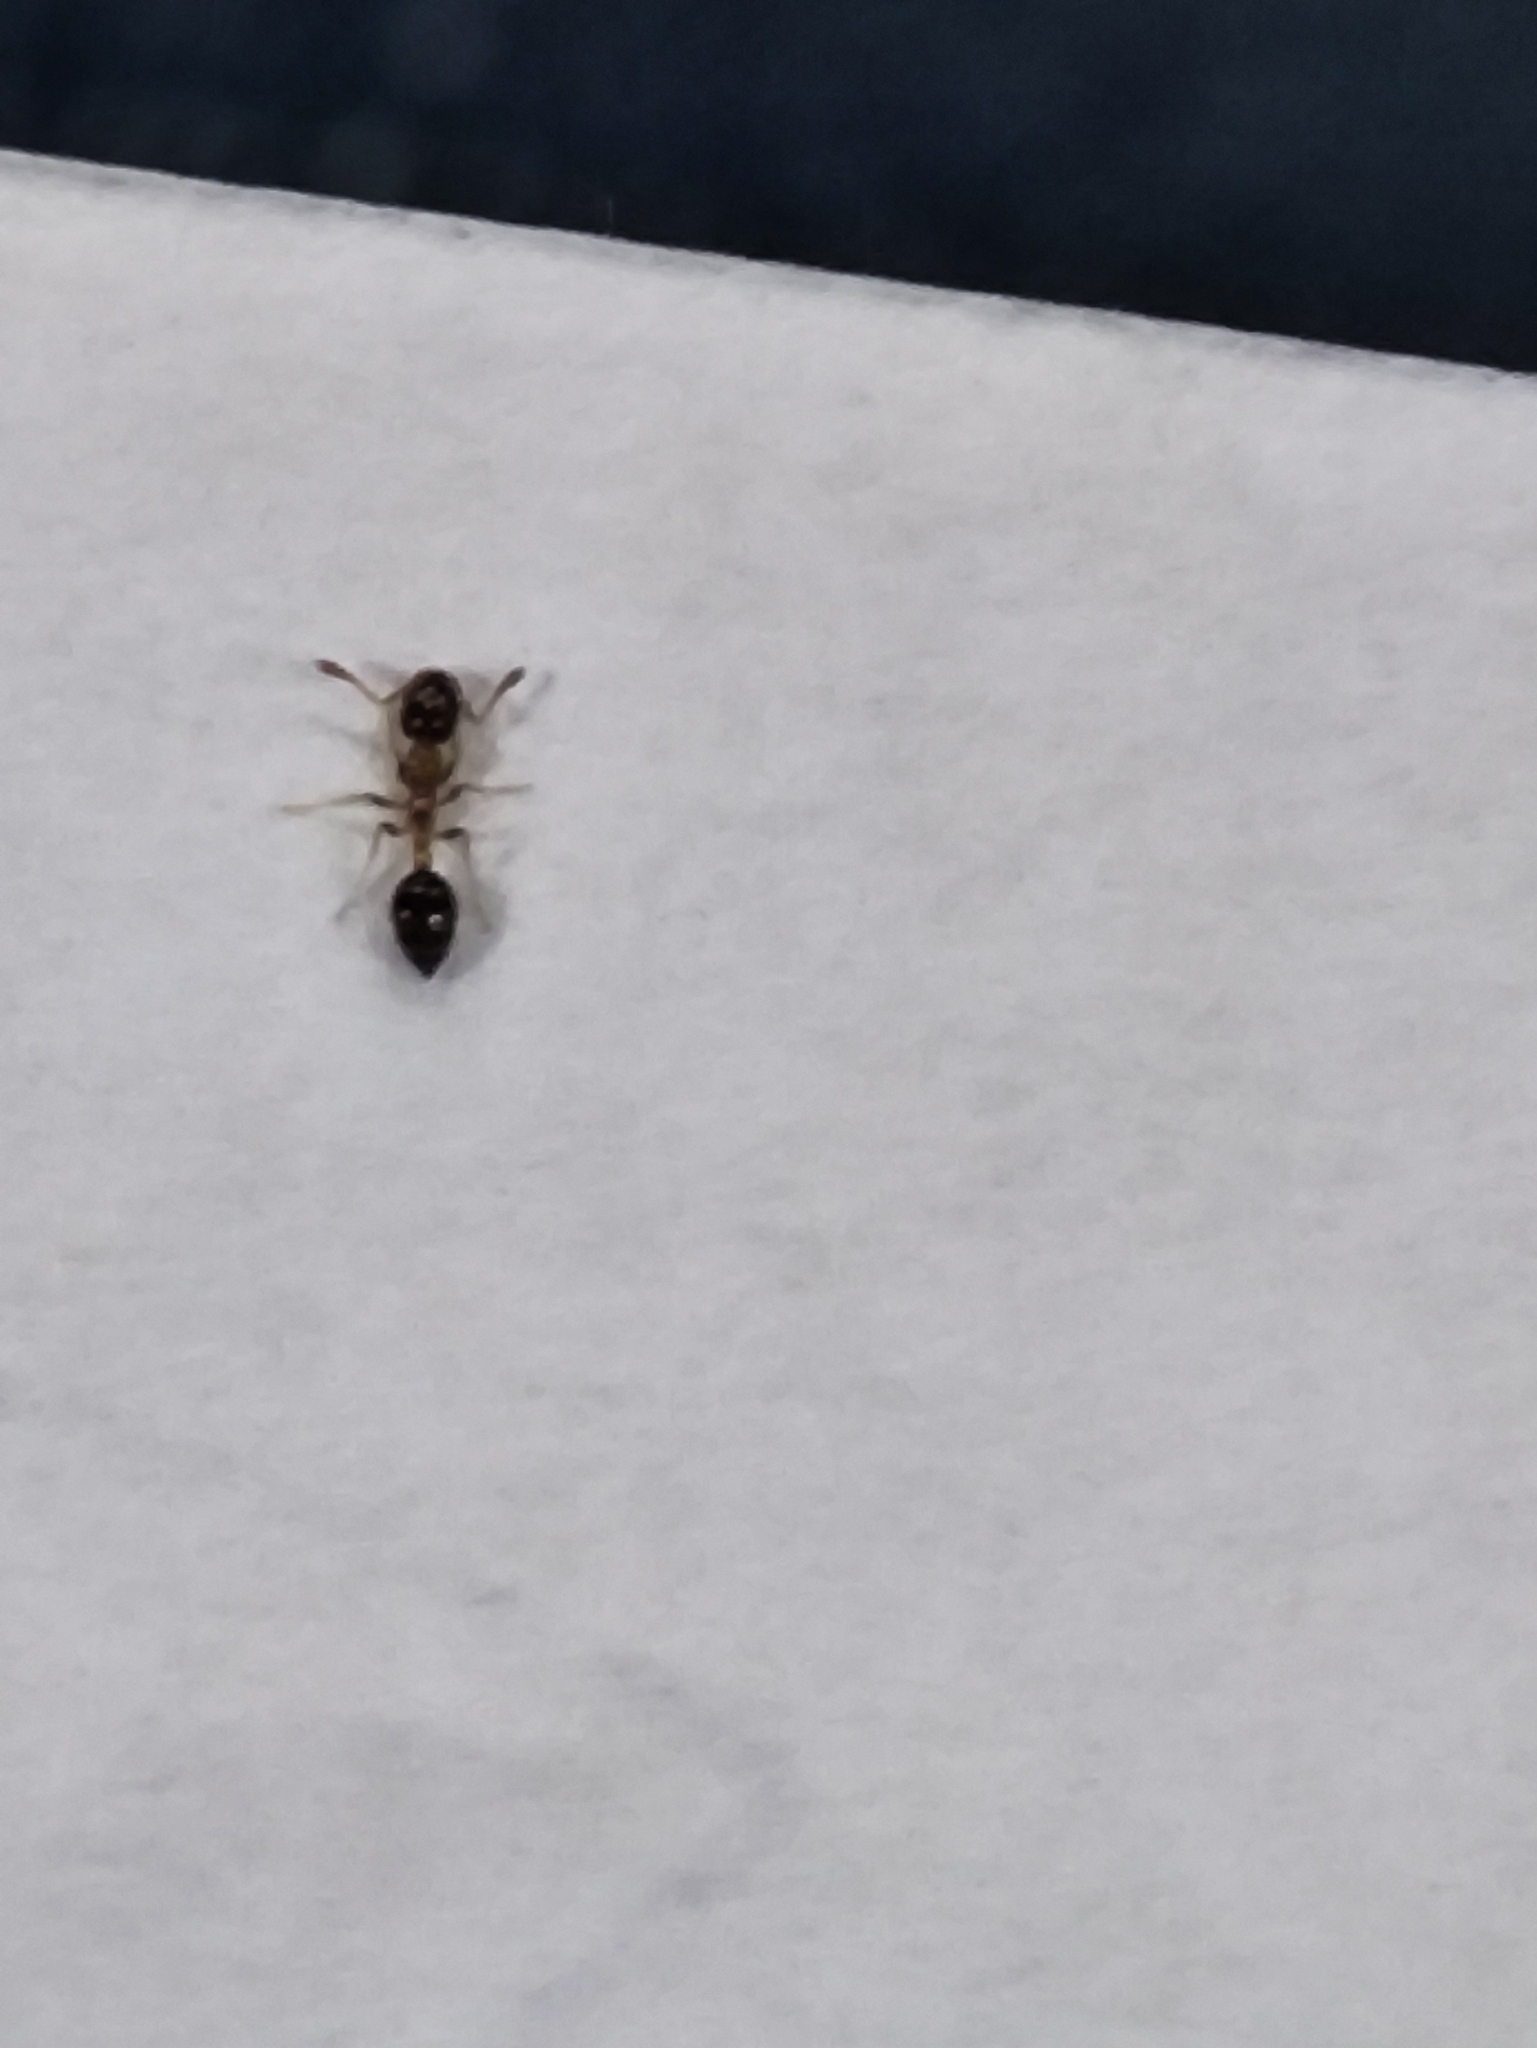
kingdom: Animalia
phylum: Arthropoda
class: Insecta
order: Hymenoptera
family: Formicidae
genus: Monomorium
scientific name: Monomorium floricola
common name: Bicolored trailing ant
